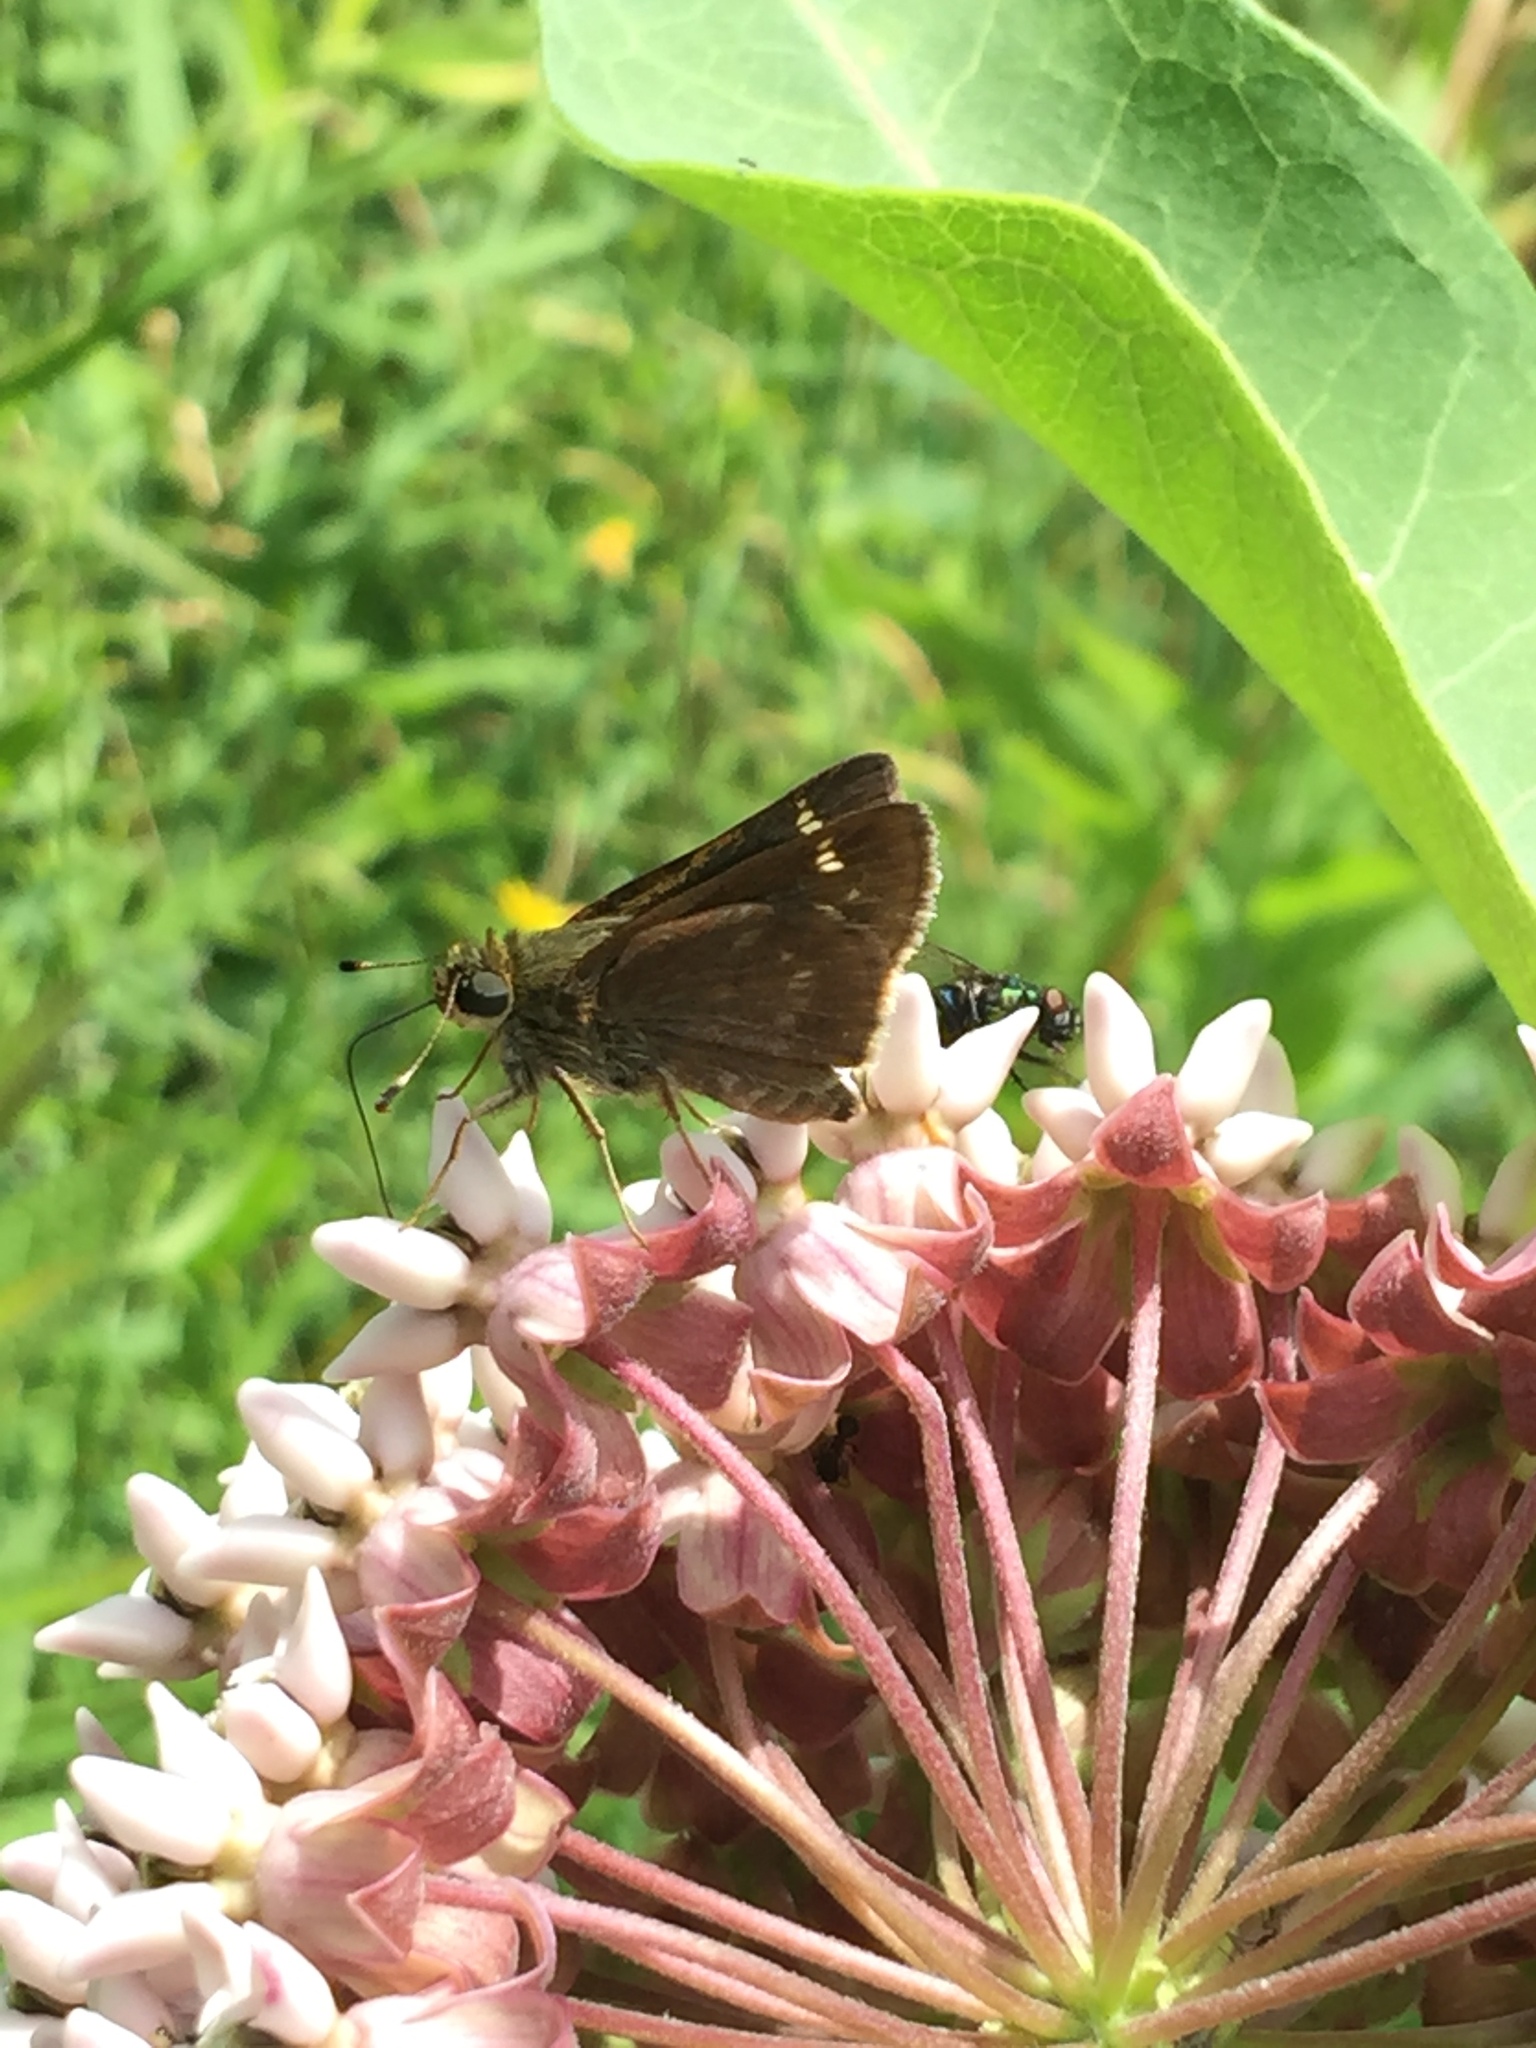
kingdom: Animalia
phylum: Arthropoda
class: Insecta
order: Lepidoptera
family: Hesperiidae
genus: Vernia
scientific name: Vernia verna
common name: Little glassywing
